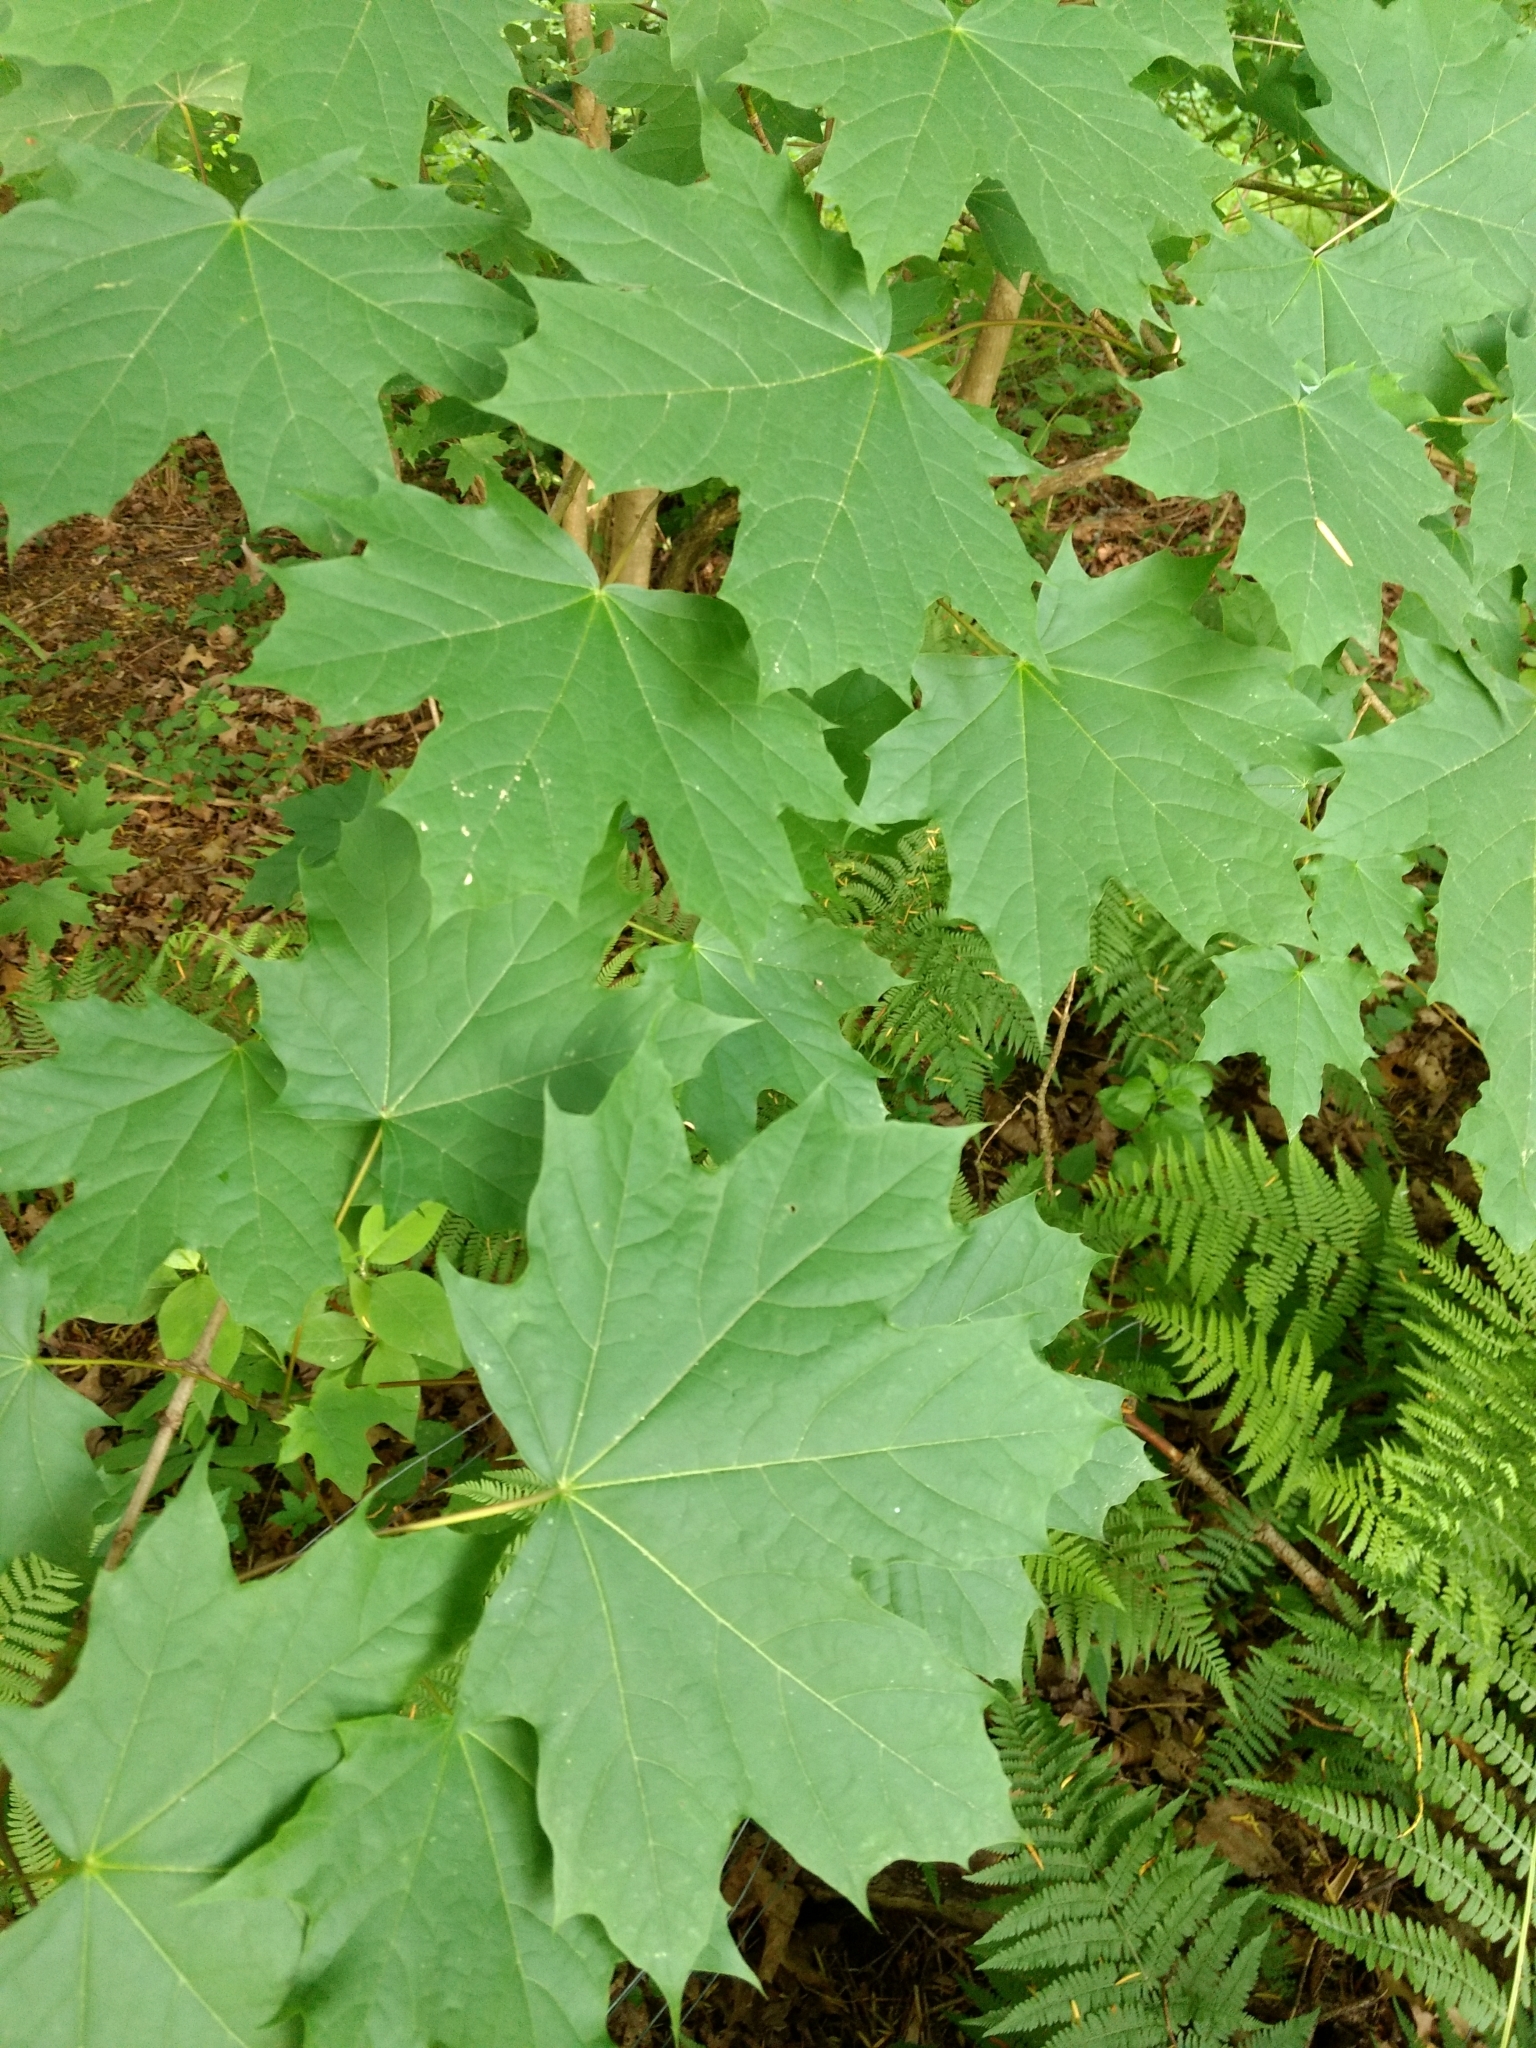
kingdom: Plantae
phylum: Tracheophyta
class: Magnoliopsida
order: Sapindales
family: Sapindaceae
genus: Acer
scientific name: Acer platanoides
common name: Norway maple
